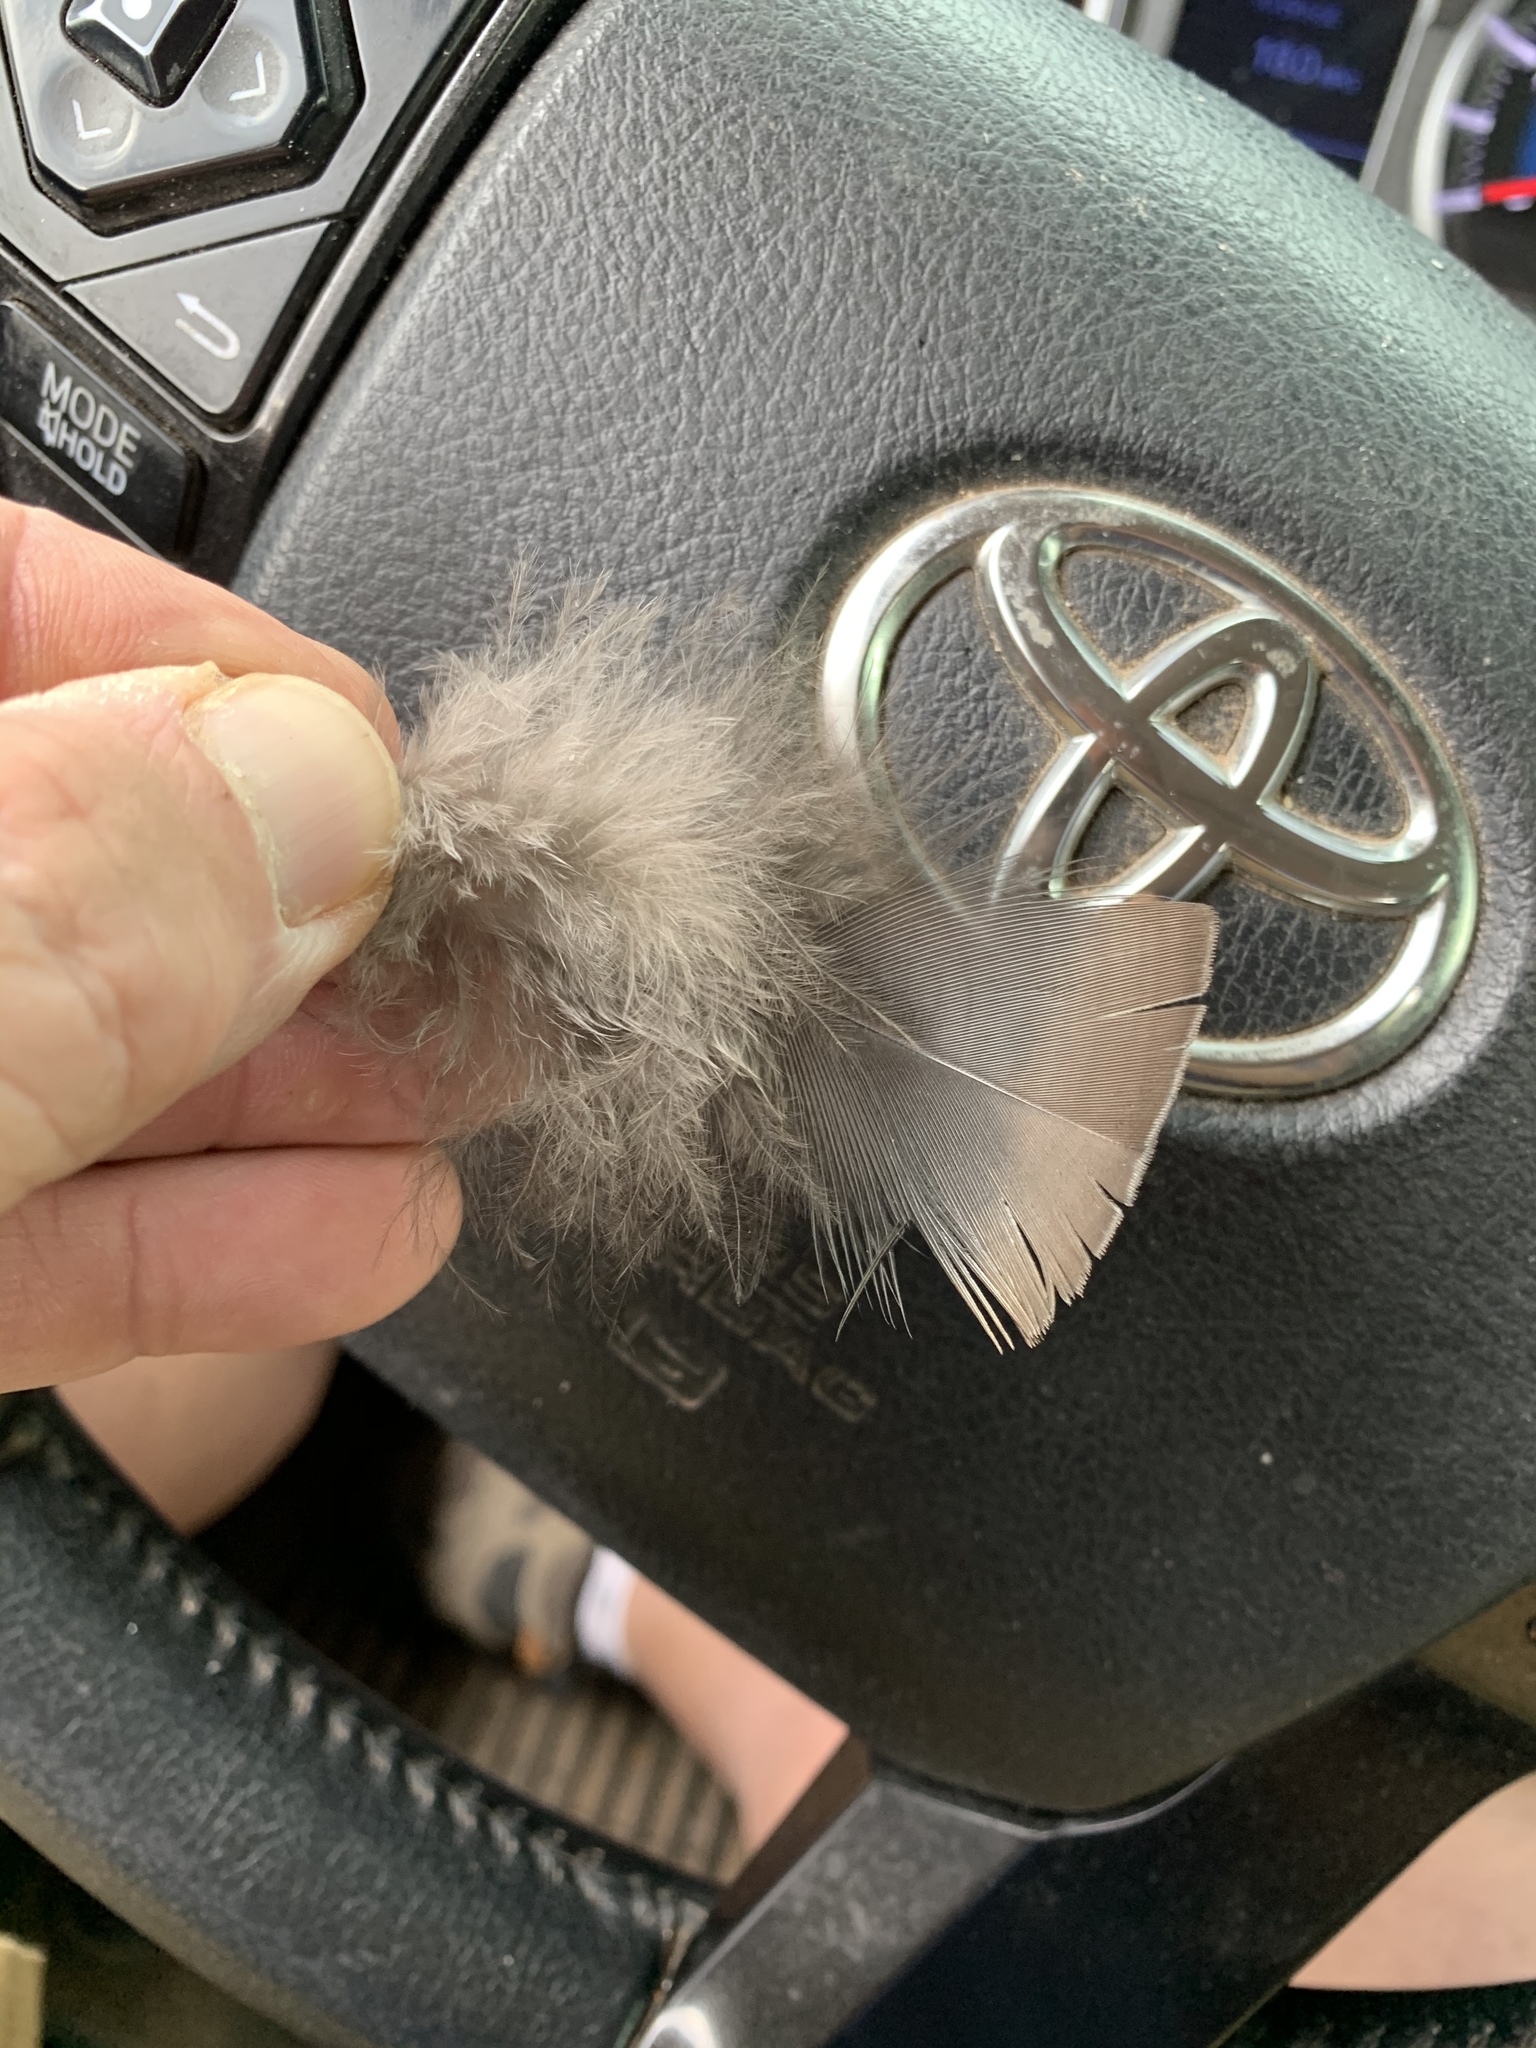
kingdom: Animalia
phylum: Chordata
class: Aves
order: Galliformes
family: Phasianidae
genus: Meleagris
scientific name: Meleagris gallopavo
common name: Wild turkey
